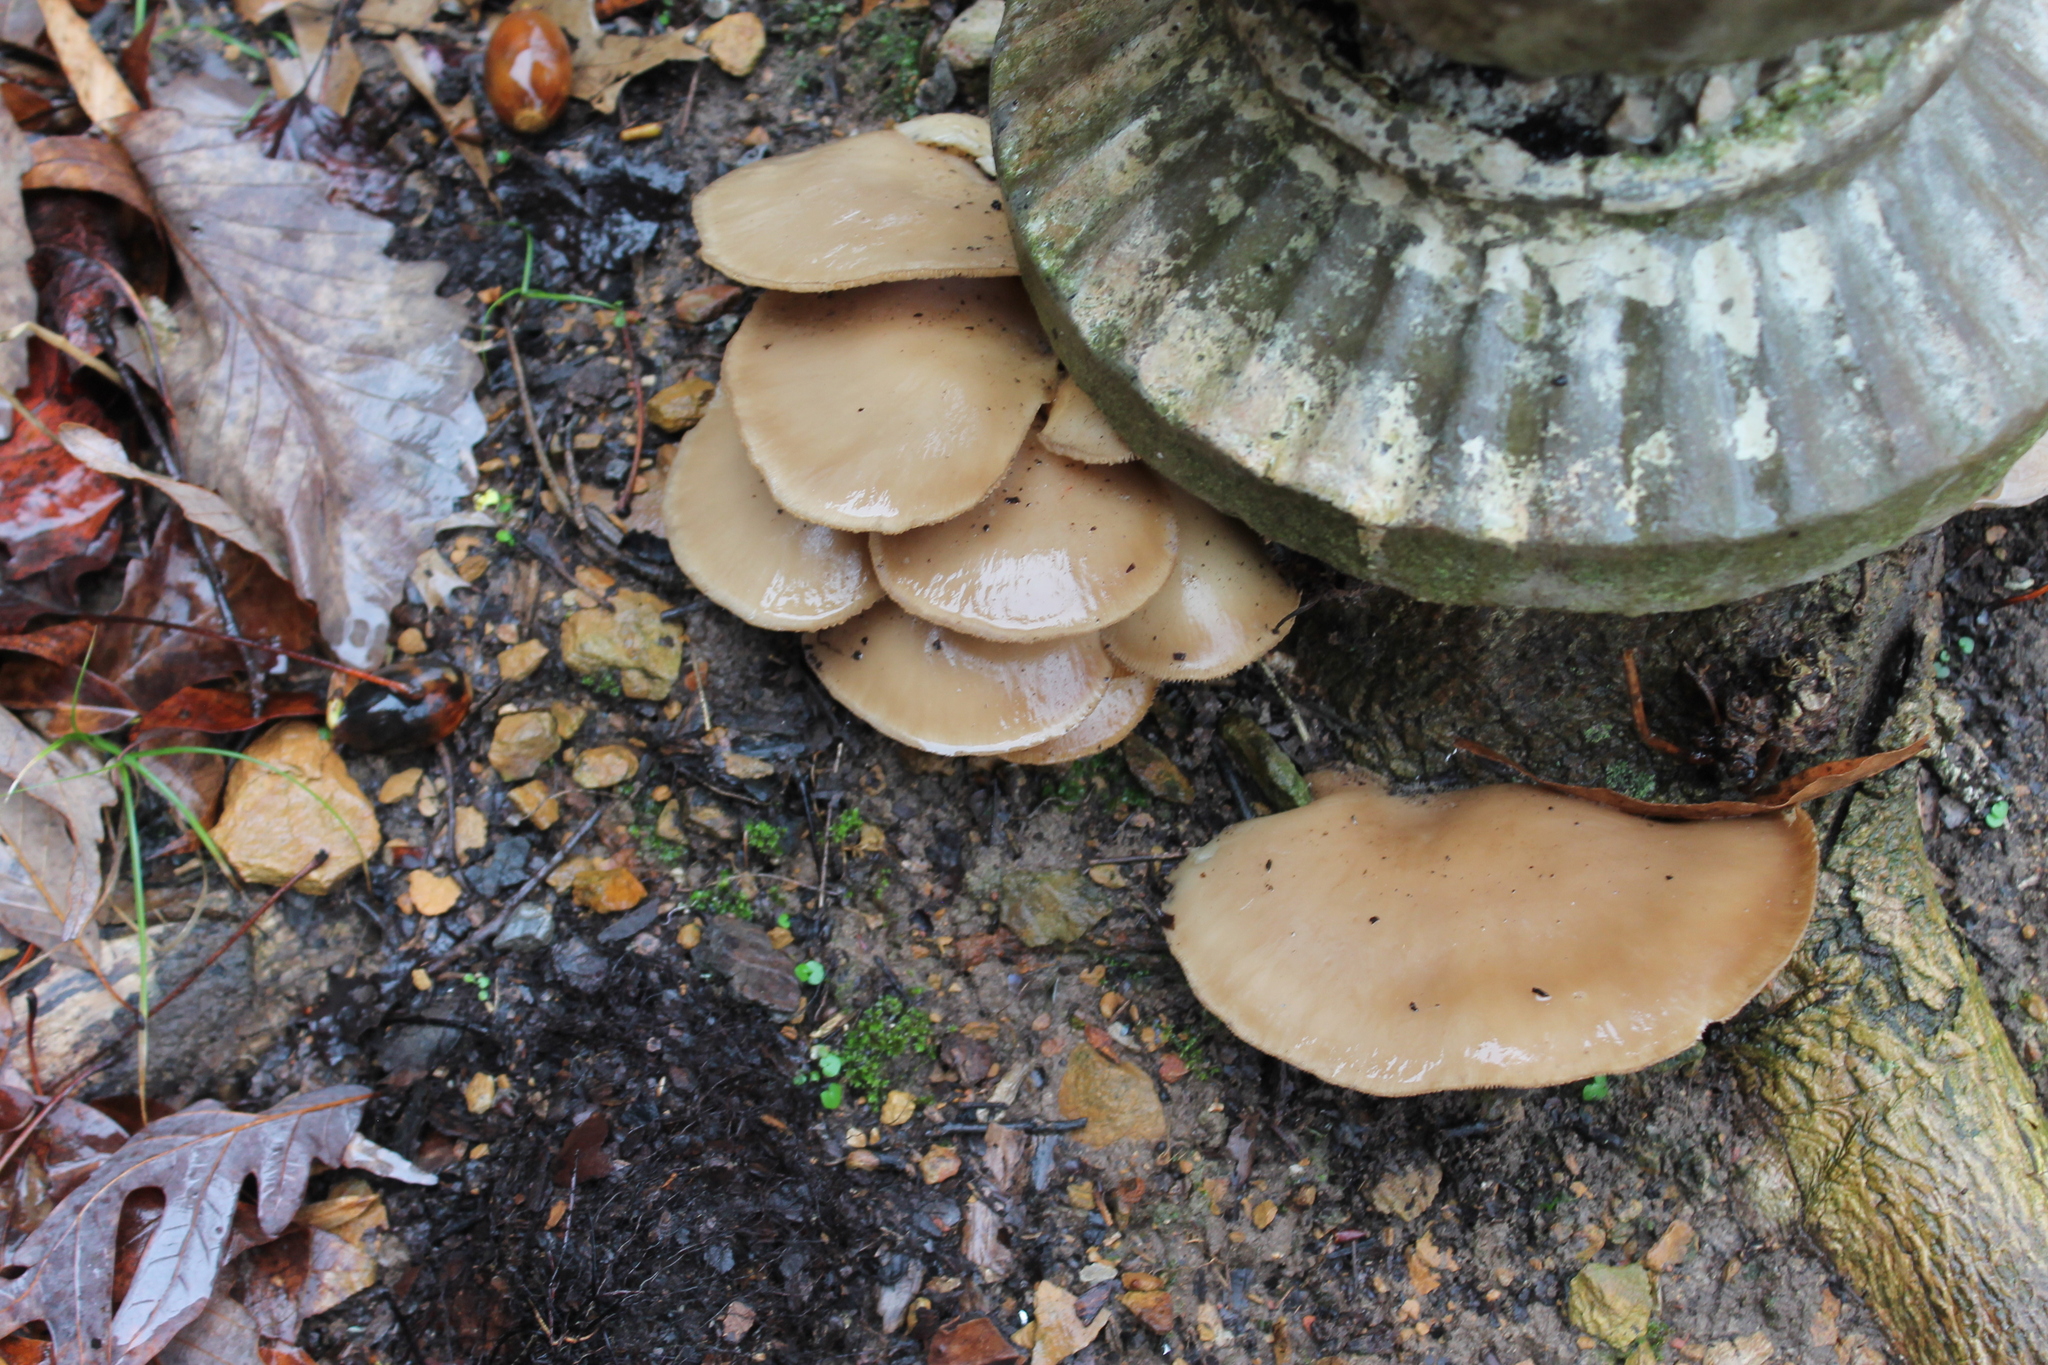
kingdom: Fungi
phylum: Basidiomycota
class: Agaricomycetes
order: Agaricales
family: Pleurotaceae
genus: Pleurotus
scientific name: Pleurotus ostreatus
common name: Oyster mushroom
